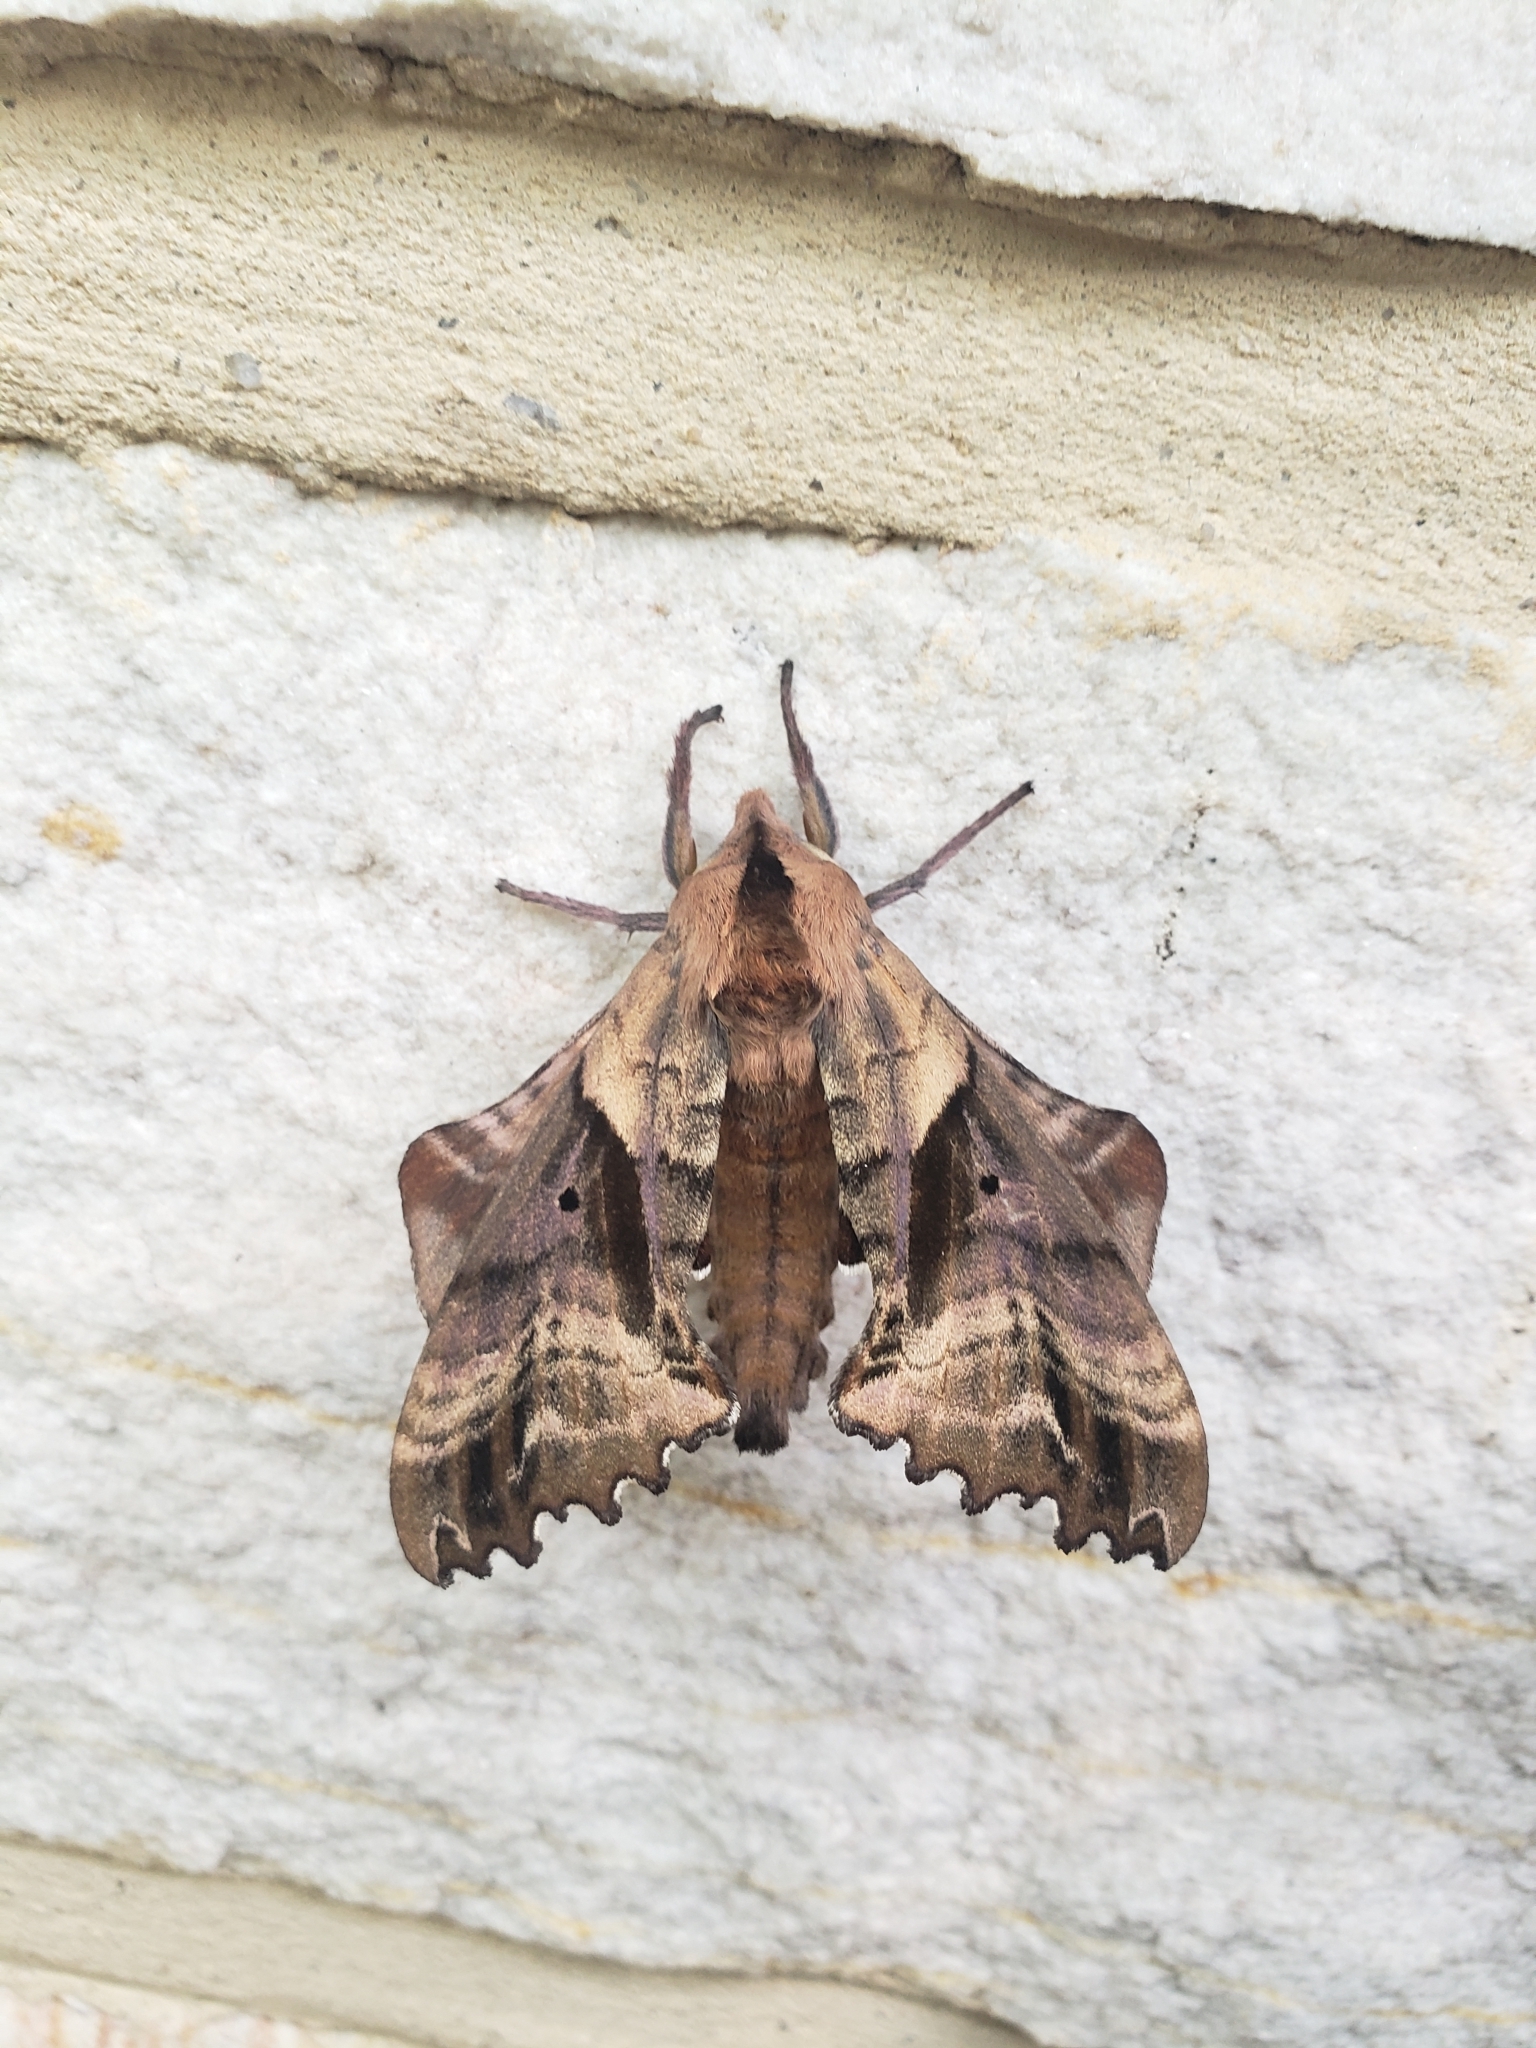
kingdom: Animalia
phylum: Arthropoda
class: Insecta
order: Lepidoptera
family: Sphingidae
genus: Paonias
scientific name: Paonias excaecata
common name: Blind-eyed sphinx
